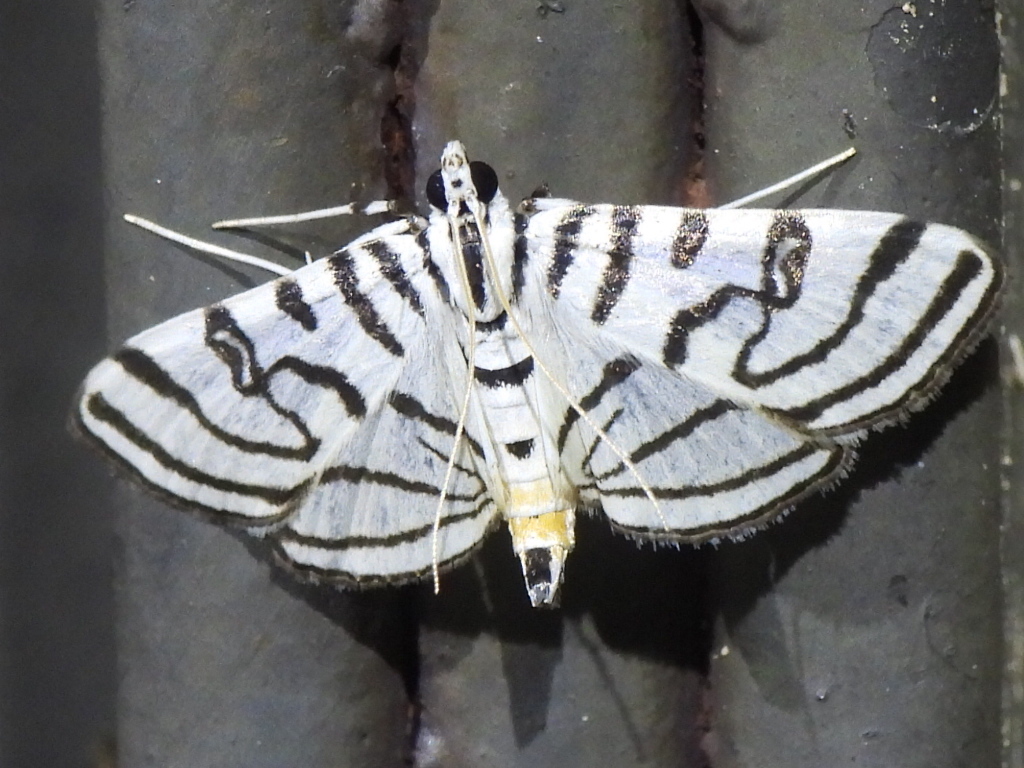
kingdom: Animalia
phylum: Arthropoda
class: Insecta
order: Lepidoptera
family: Crambidae
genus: Conchylodes
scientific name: Conchylodes ovulalis
